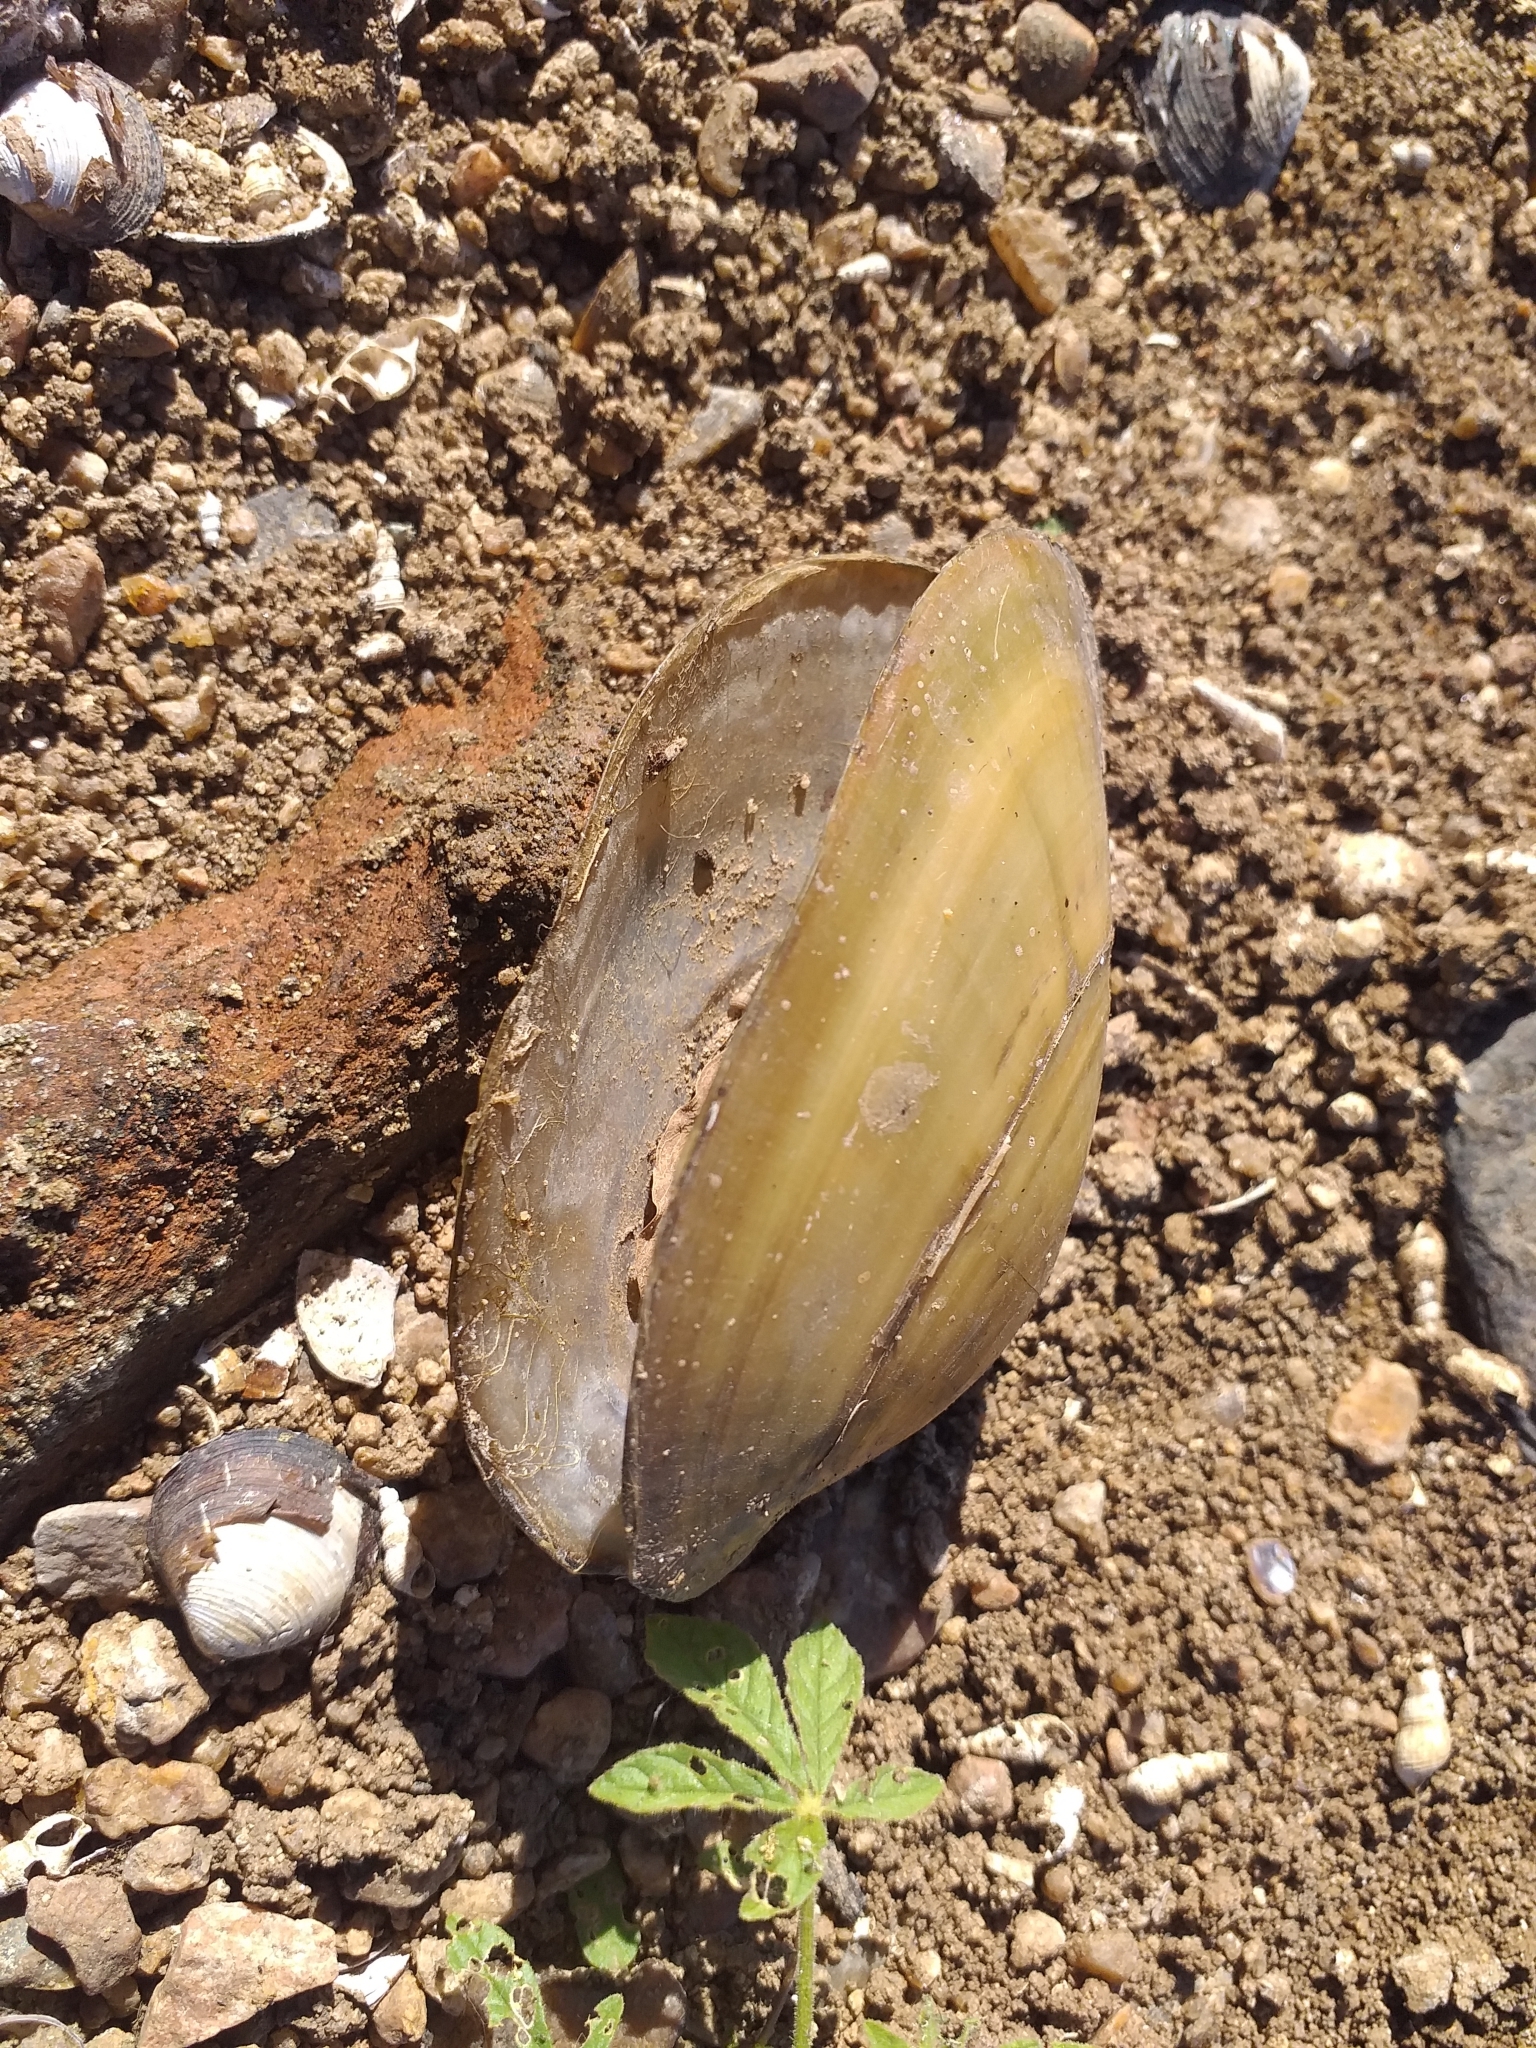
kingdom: Animalia
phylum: Mollusca
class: Bivalvia
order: Unionida
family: Mycetopodidae
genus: Anodontites
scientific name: Anodontites trapesialis
